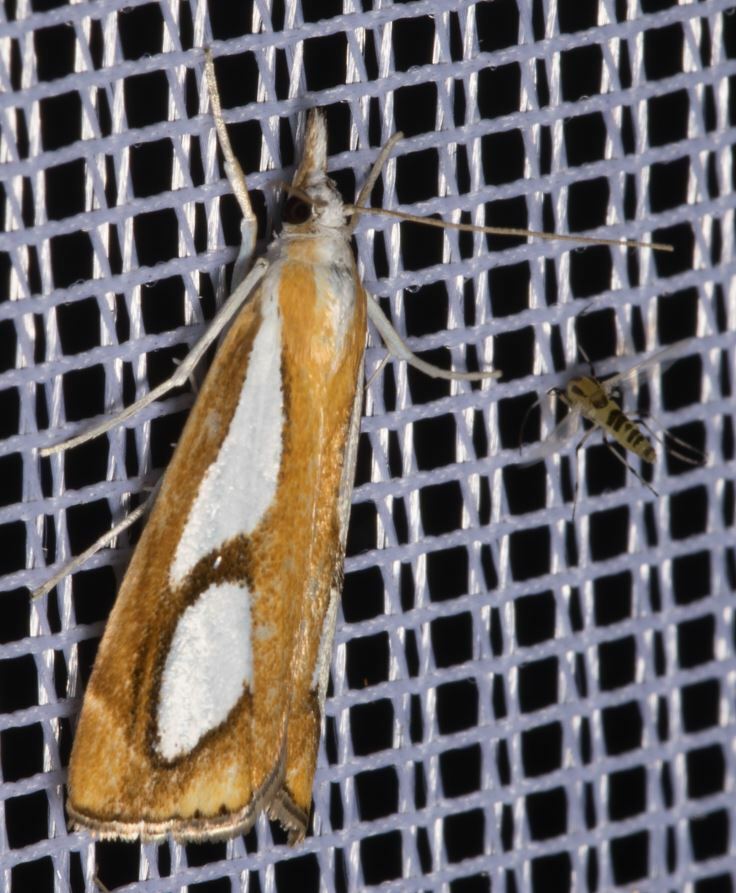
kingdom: Animalia
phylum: Arthropoda
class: Insecta
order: Lepidoptera
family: Crambidae
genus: Catoptria
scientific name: Catoptria pinella
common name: Pearl grass-veneer
